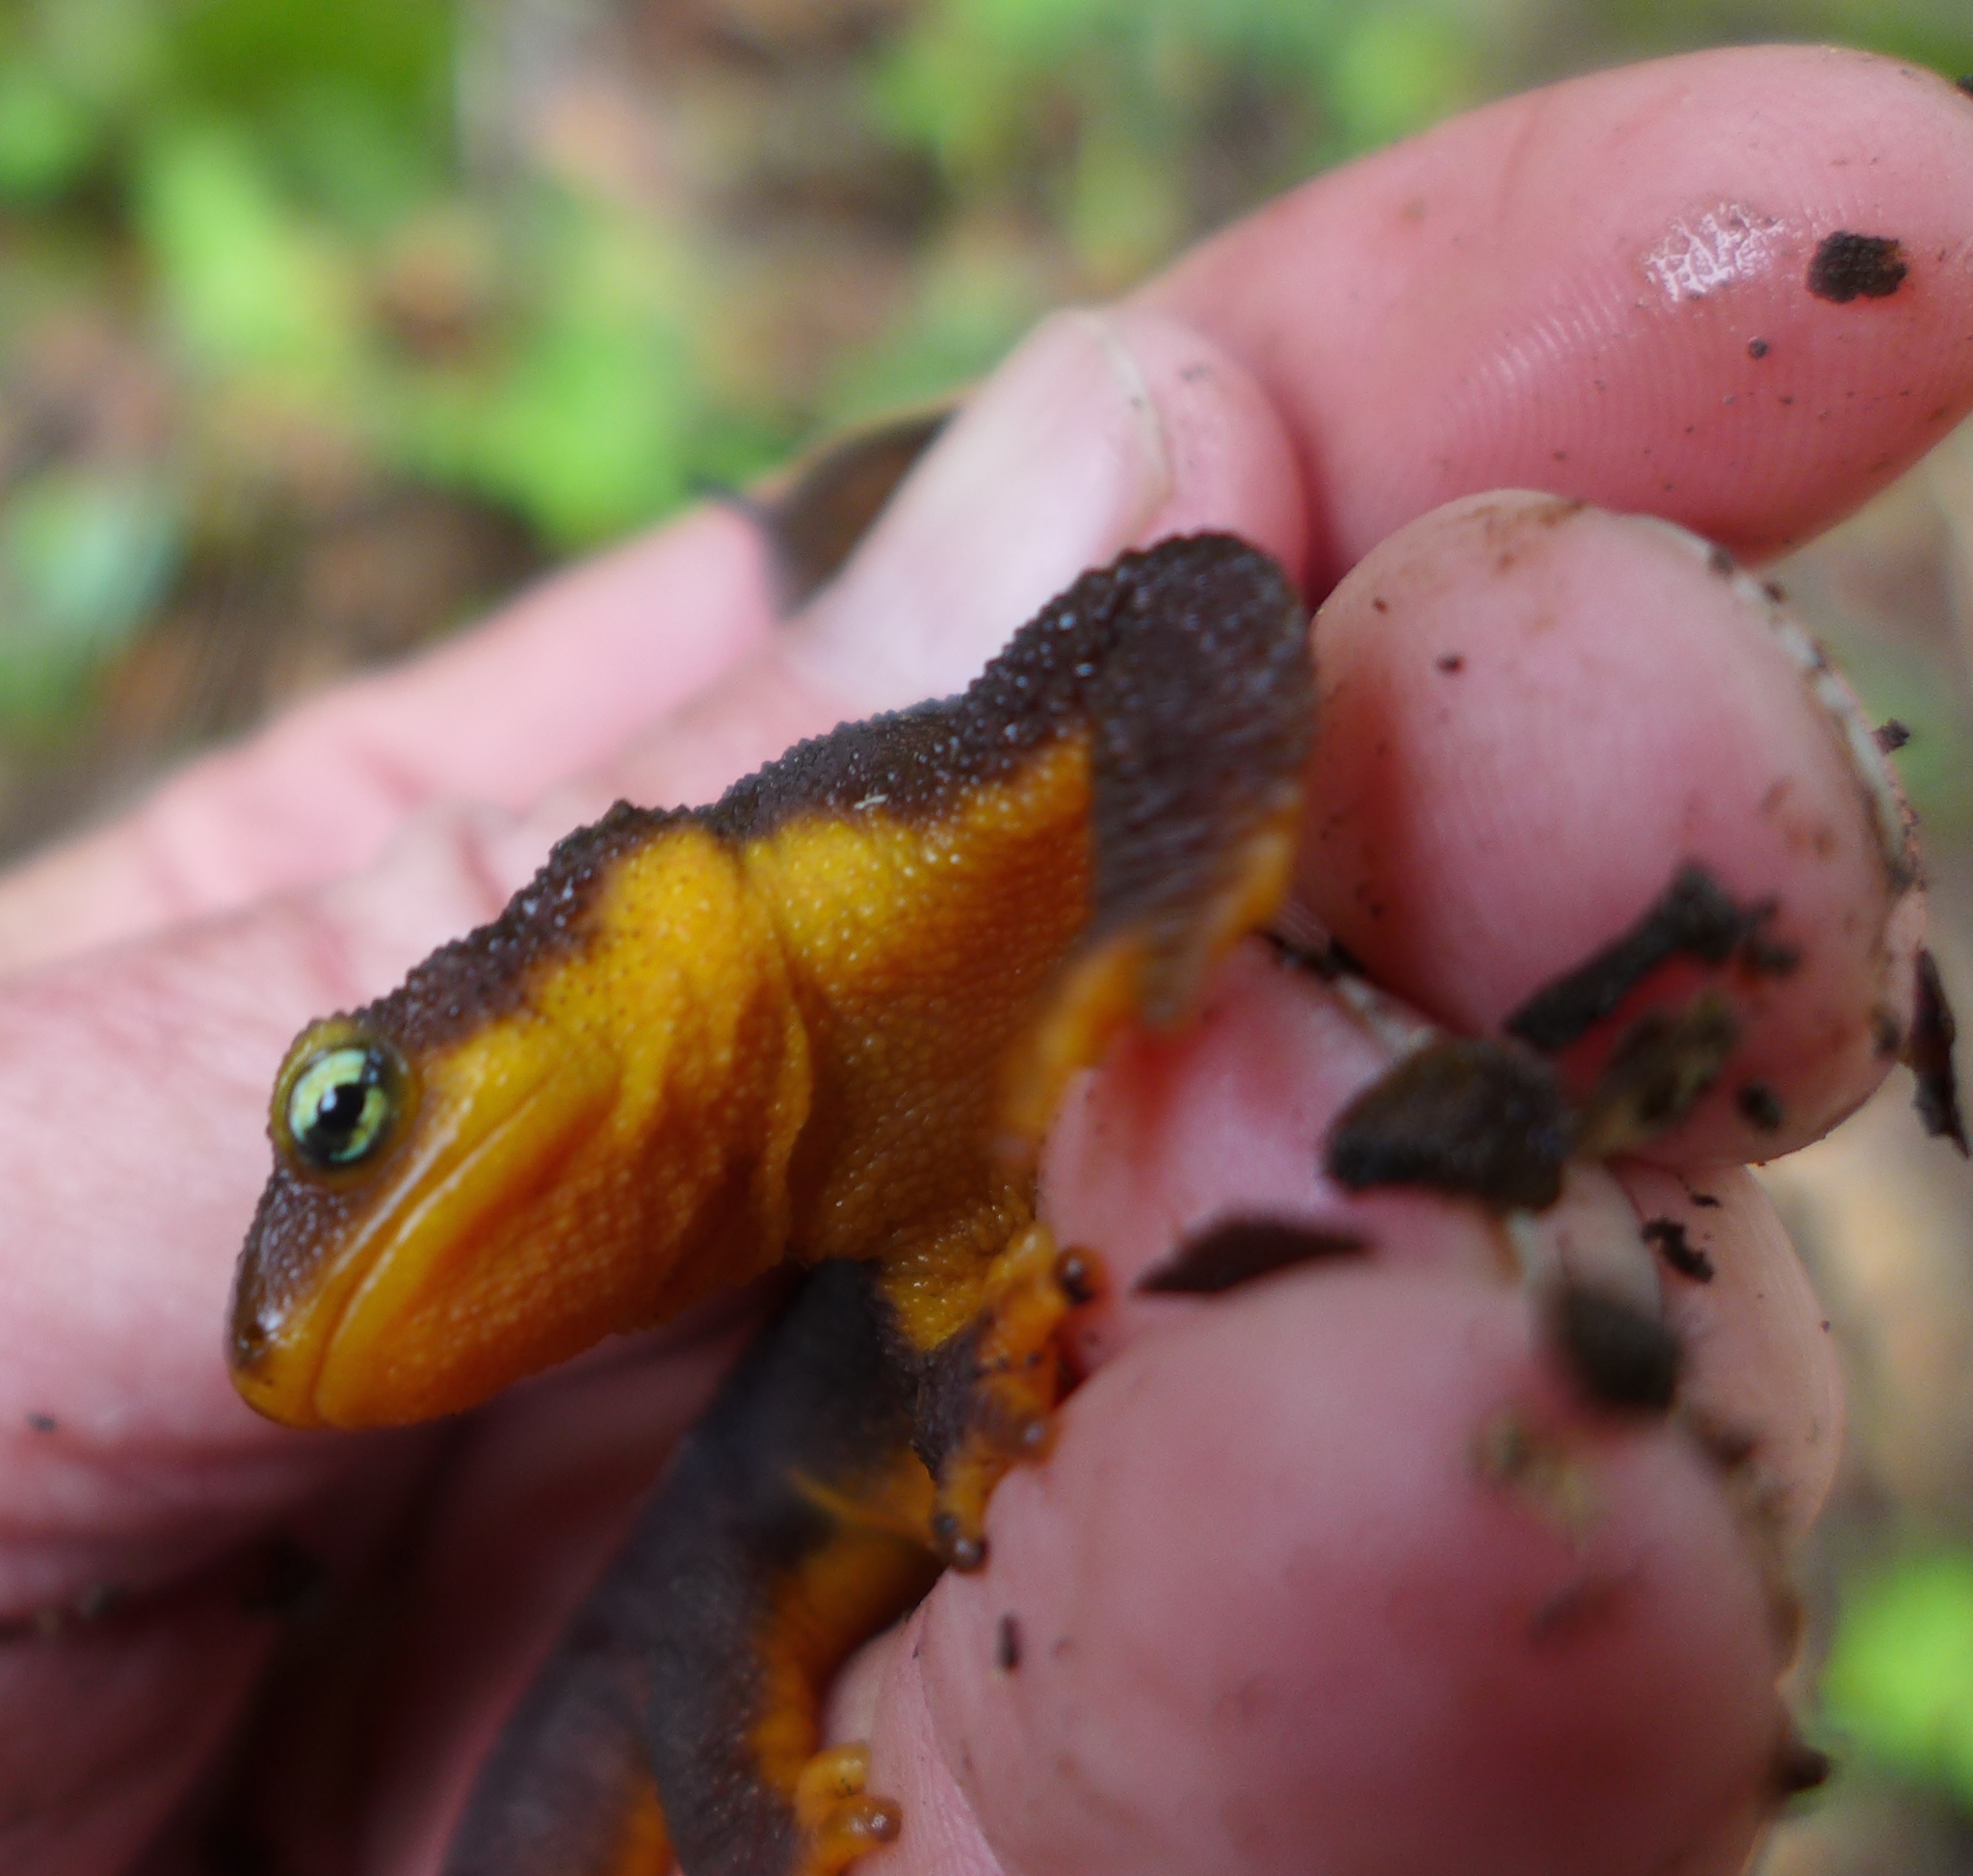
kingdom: Animalia
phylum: Chordata
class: Amphibia
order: Caudata
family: Salamandridae
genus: Taricha
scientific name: Taricha torosa
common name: California newt
